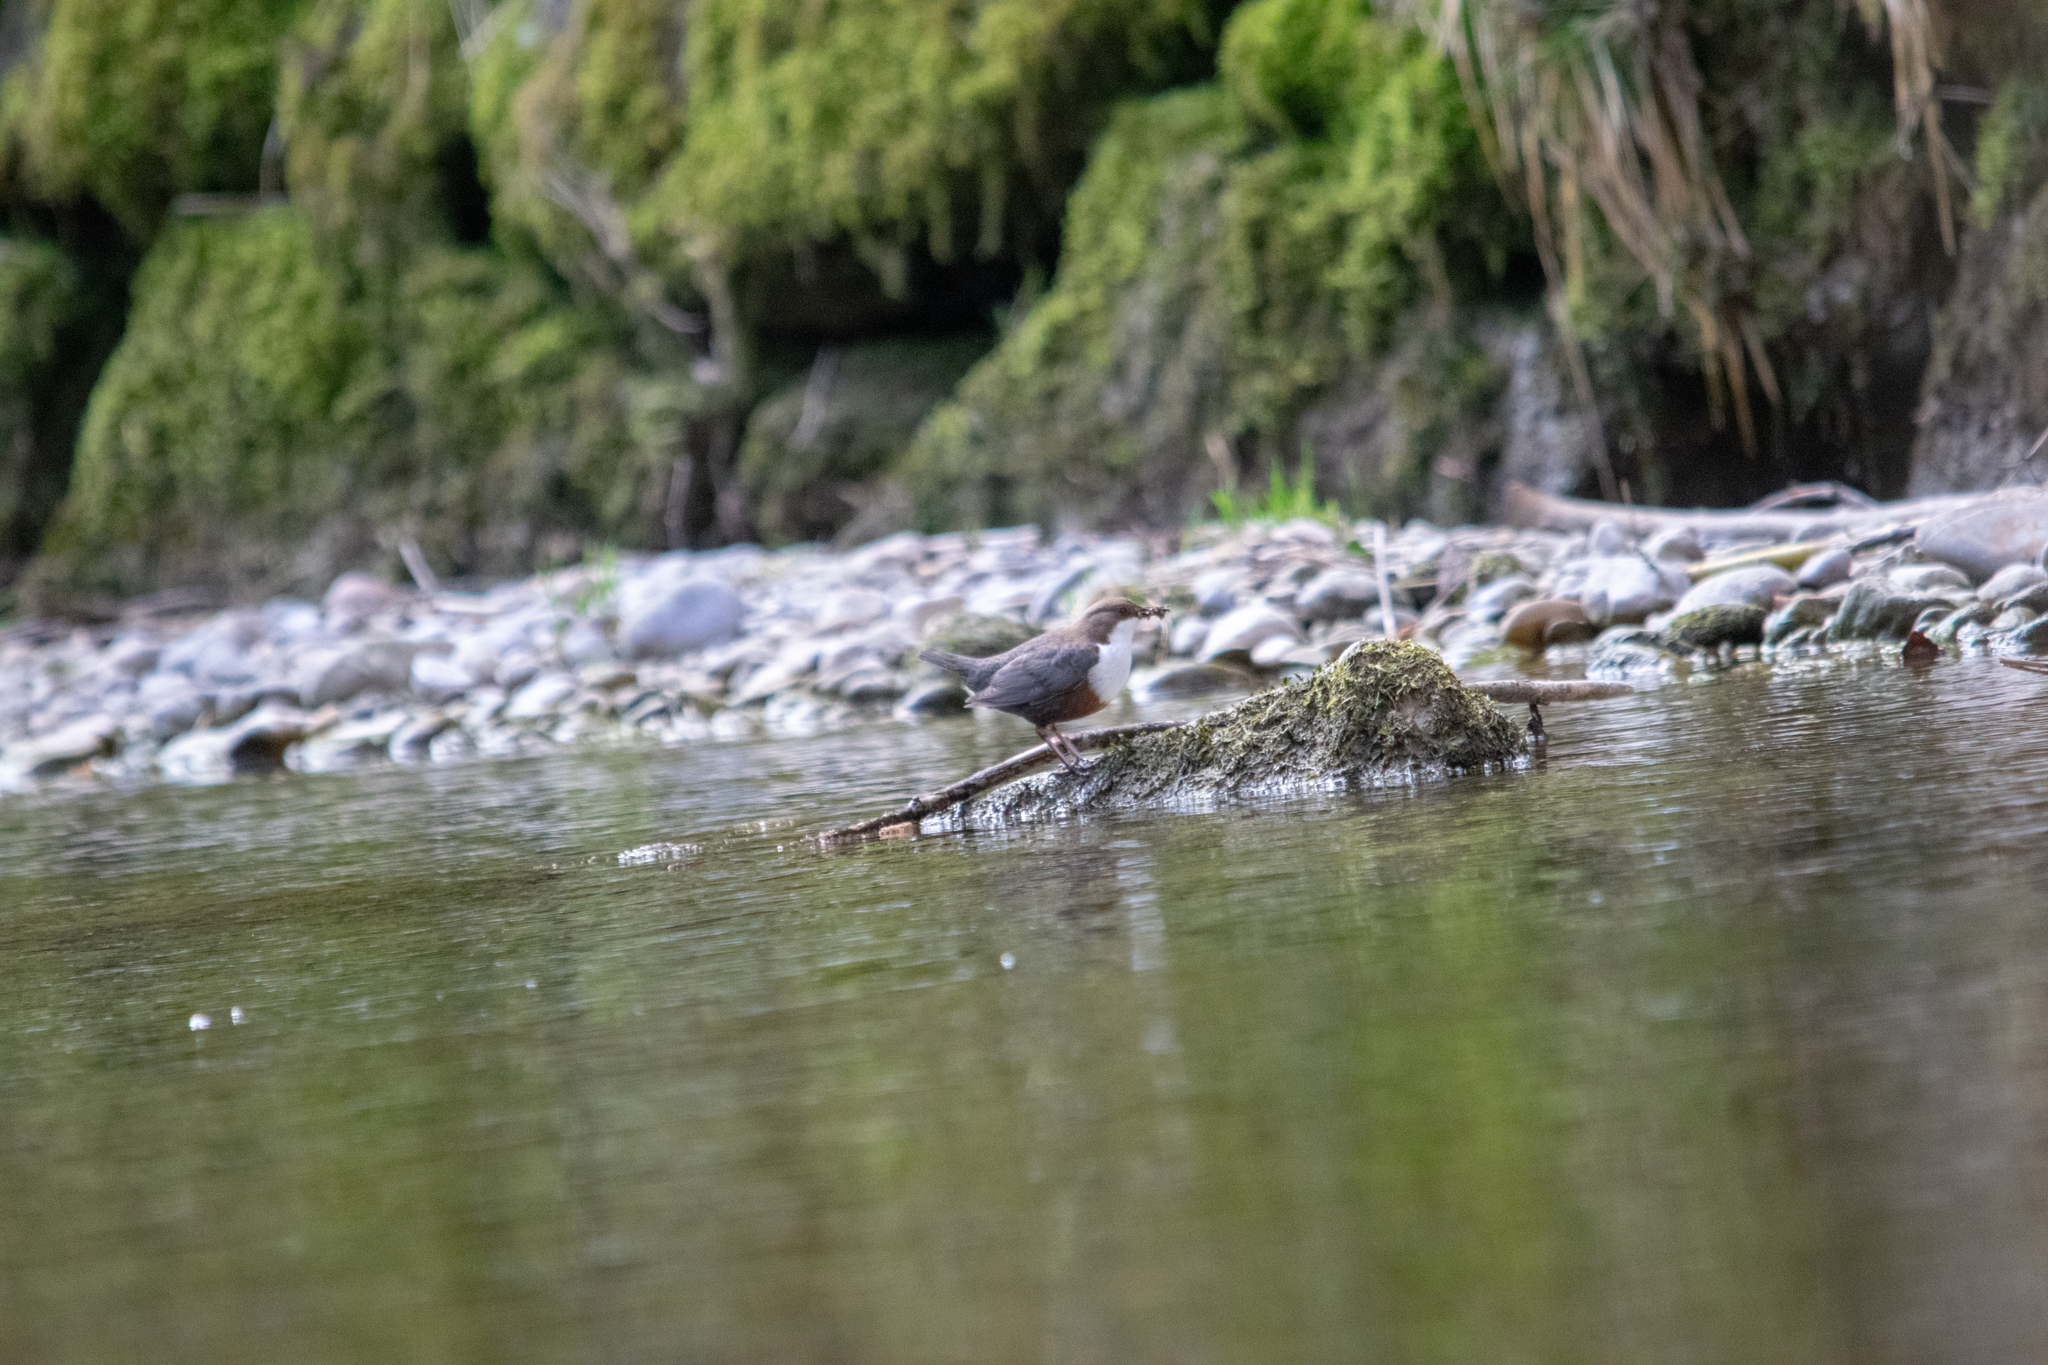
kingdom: Animalia
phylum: Chordata
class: Aves
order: Passeriformes
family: Cinclidae
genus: Cinclus
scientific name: Cinclus cinclus
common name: White-throated dipper
